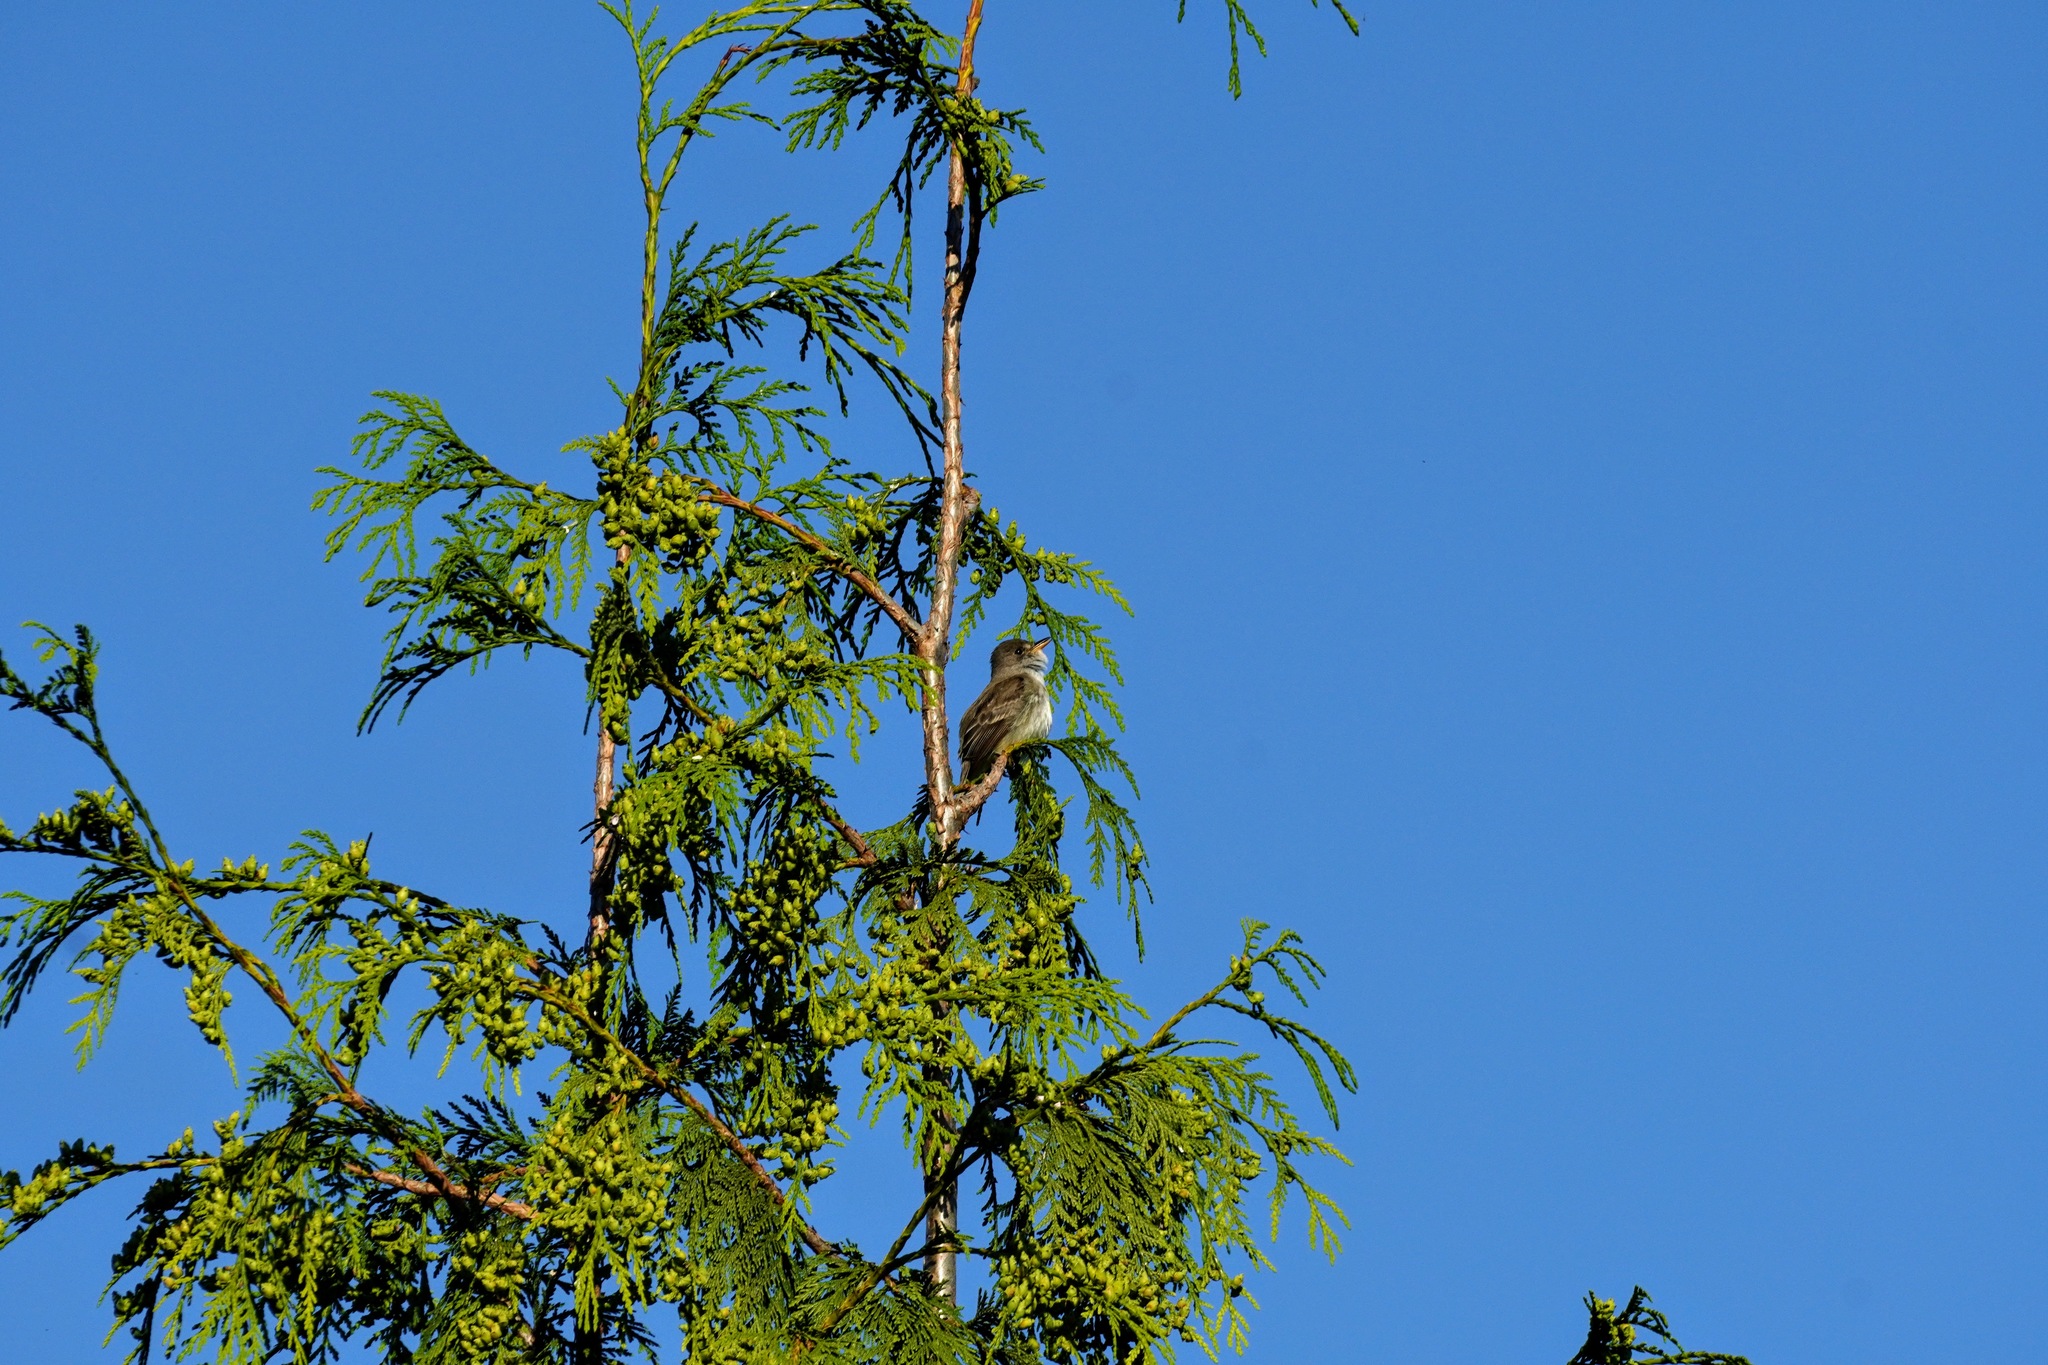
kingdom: Animalia
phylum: Chordata
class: Aves
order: Passeriformes
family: Tyrannidae
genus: Empidonax
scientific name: Empidonax traillii
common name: Willow flycatcher
